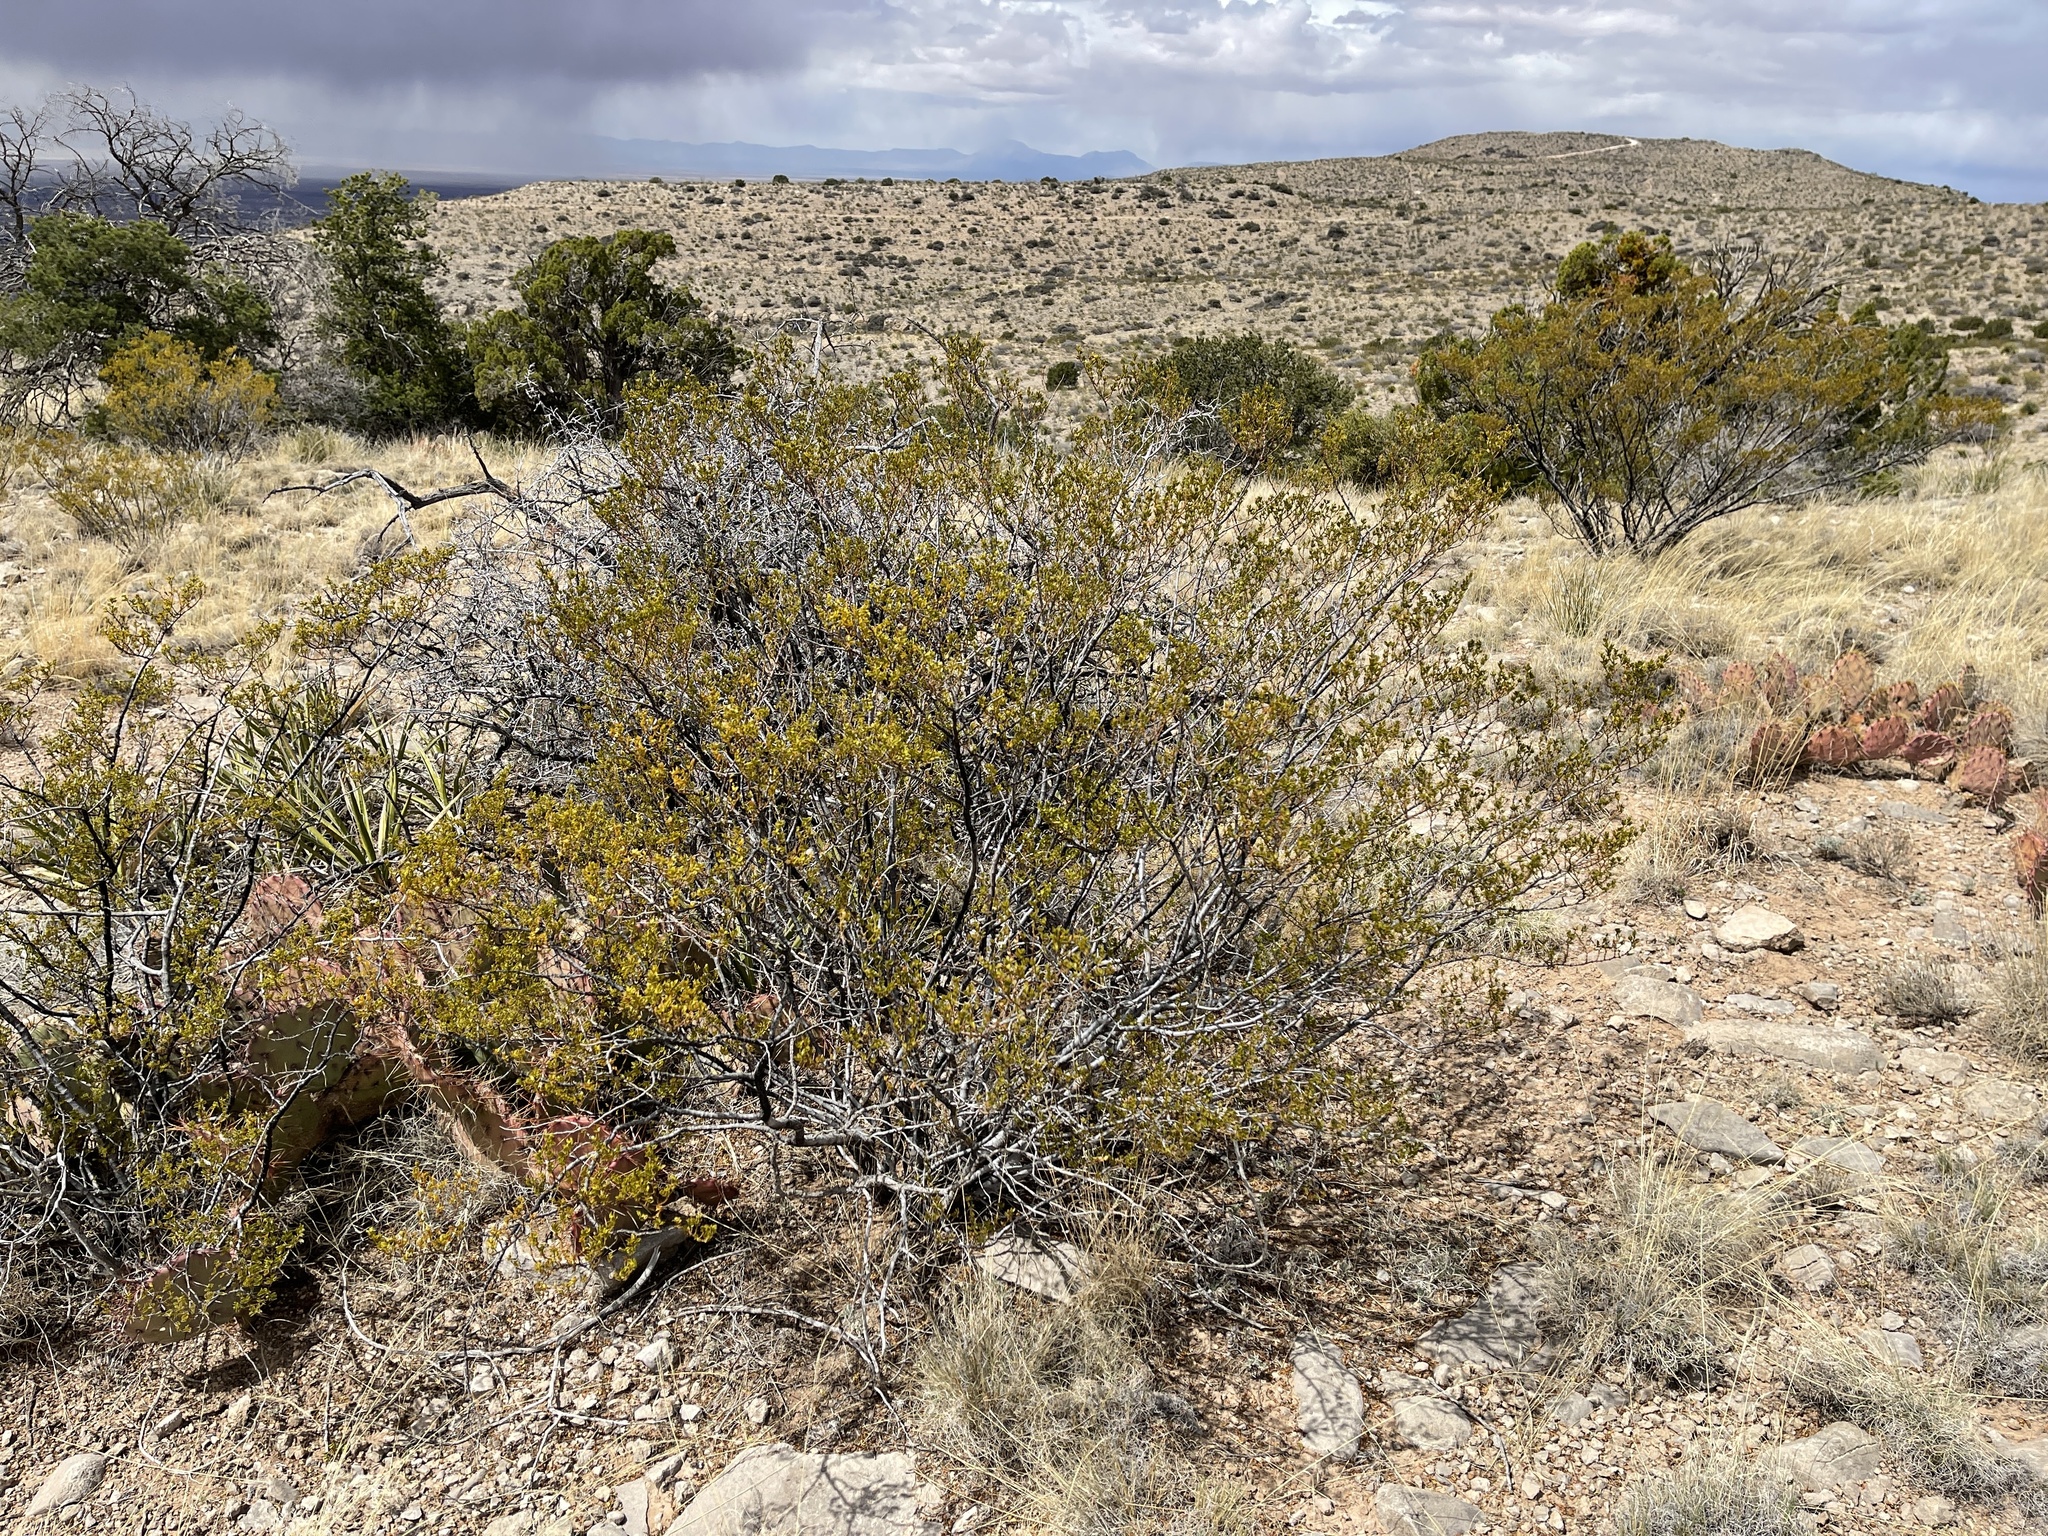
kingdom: Plantae
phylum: Tracheophyta
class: Magnoliopsida
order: Zygophyllales
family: Zygophyllaceae
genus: Larrea
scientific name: Larrea tridentata
